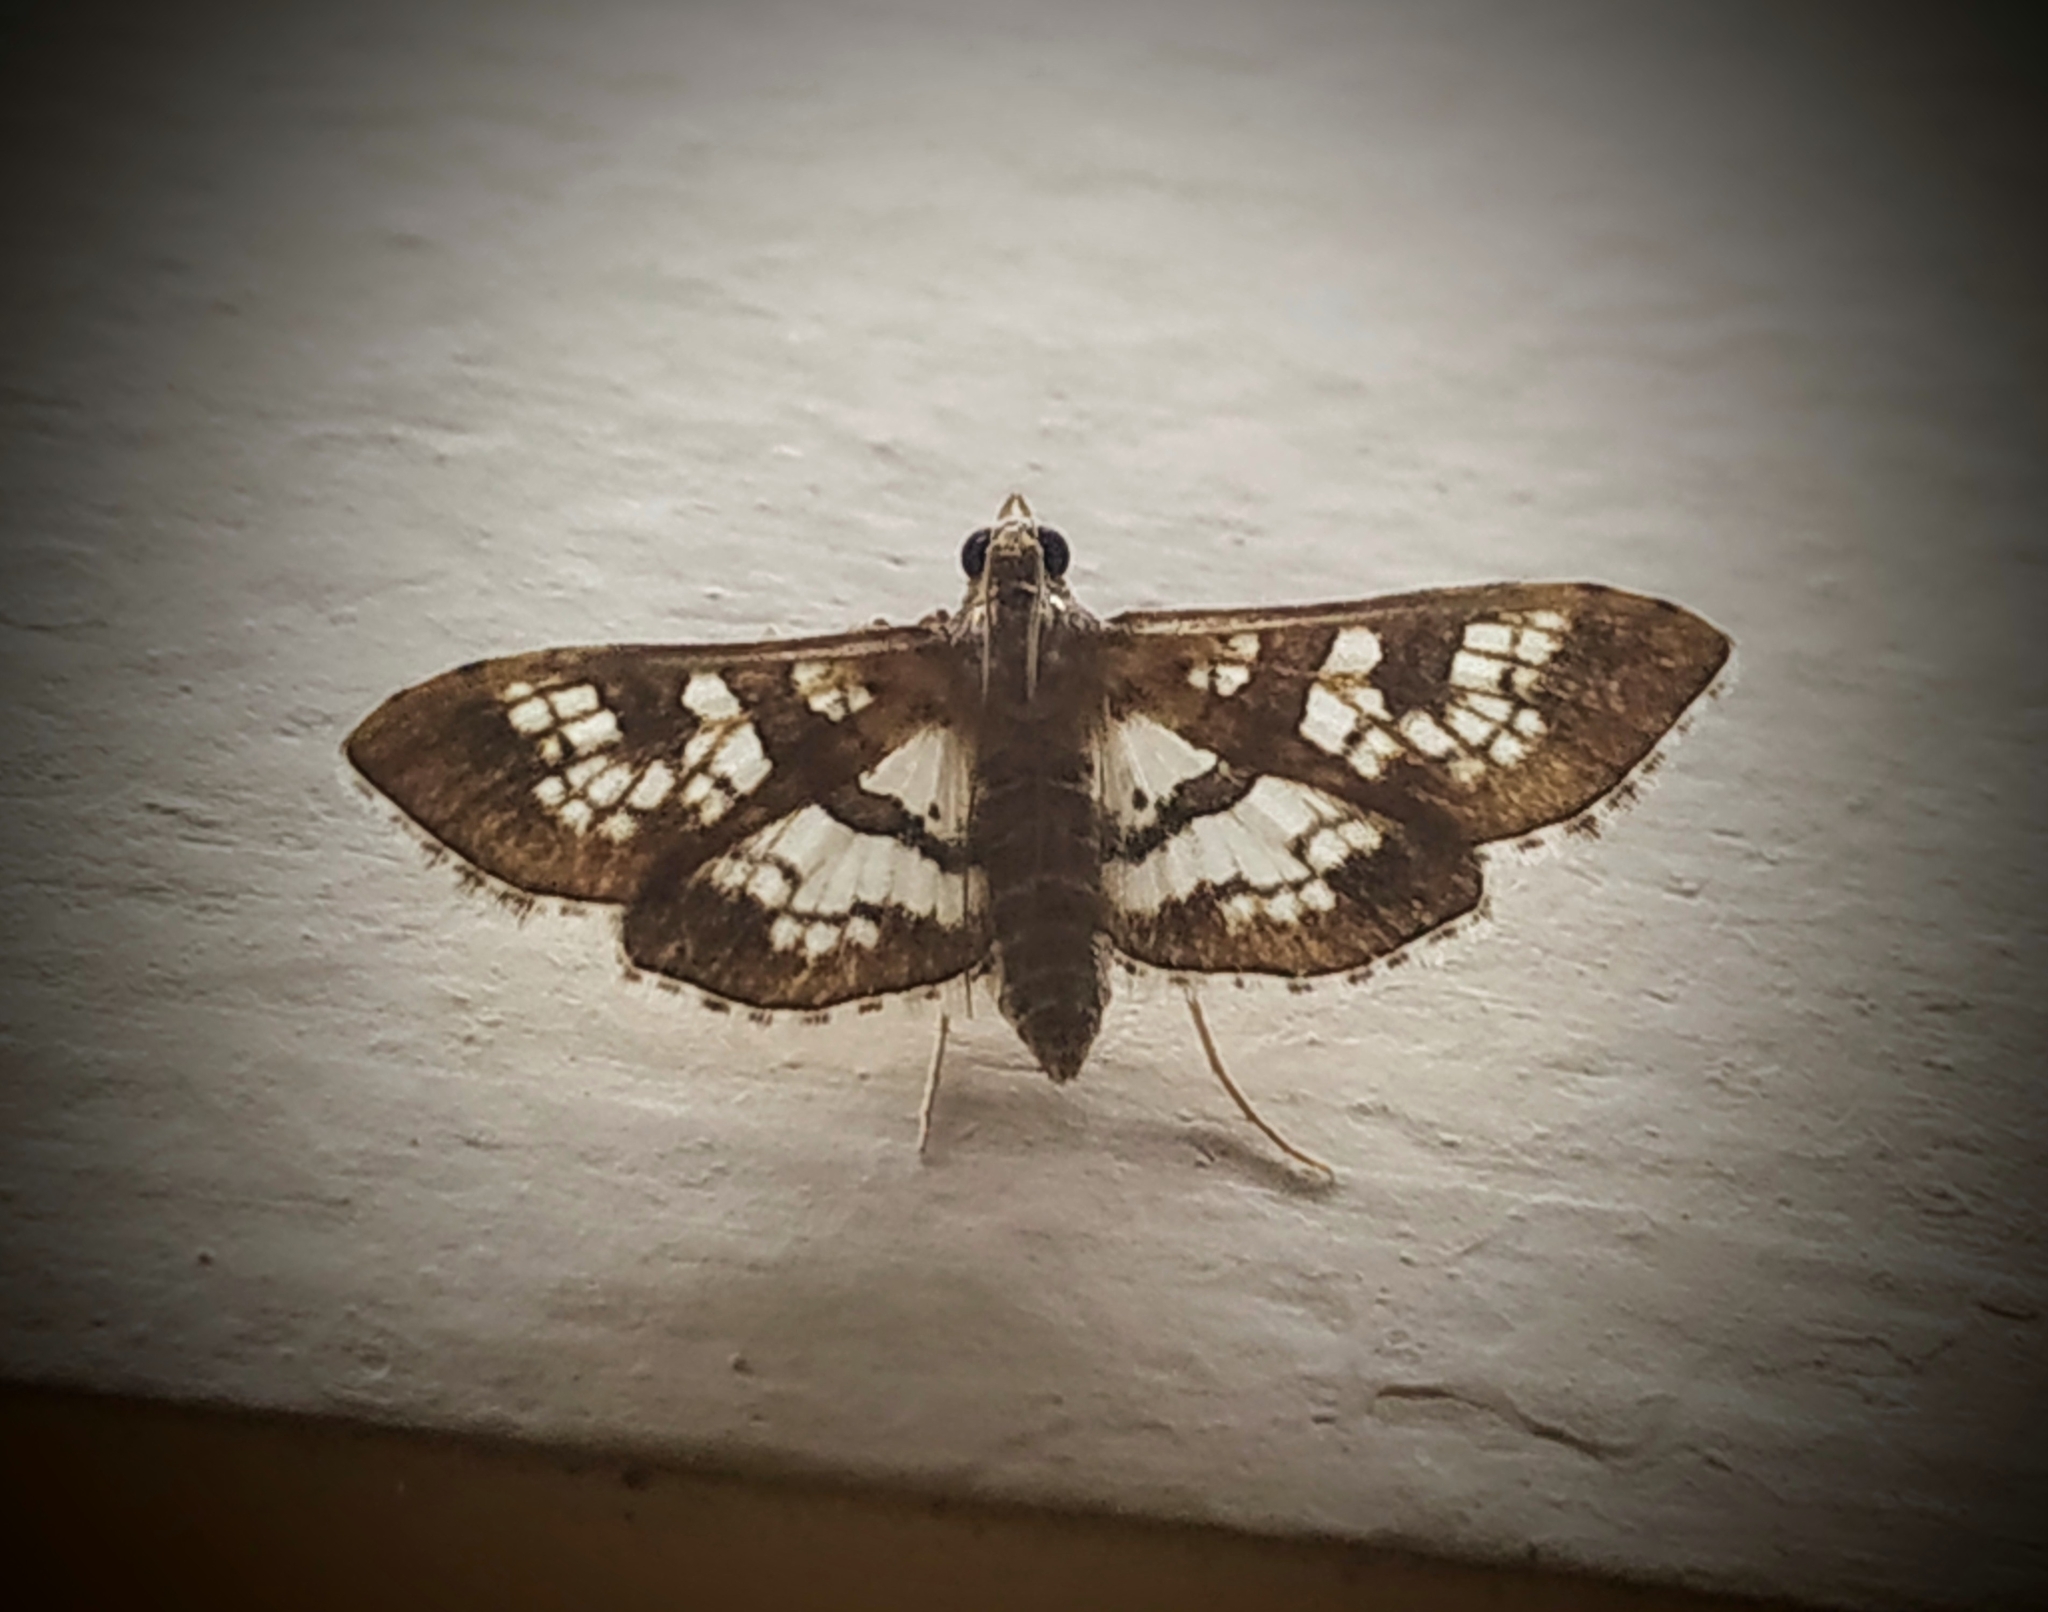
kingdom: Animalia
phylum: Arthropoda
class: Insecta
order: Lepidoptera
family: Crambidae
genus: Sameodes
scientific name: Sameodes cancellalis
